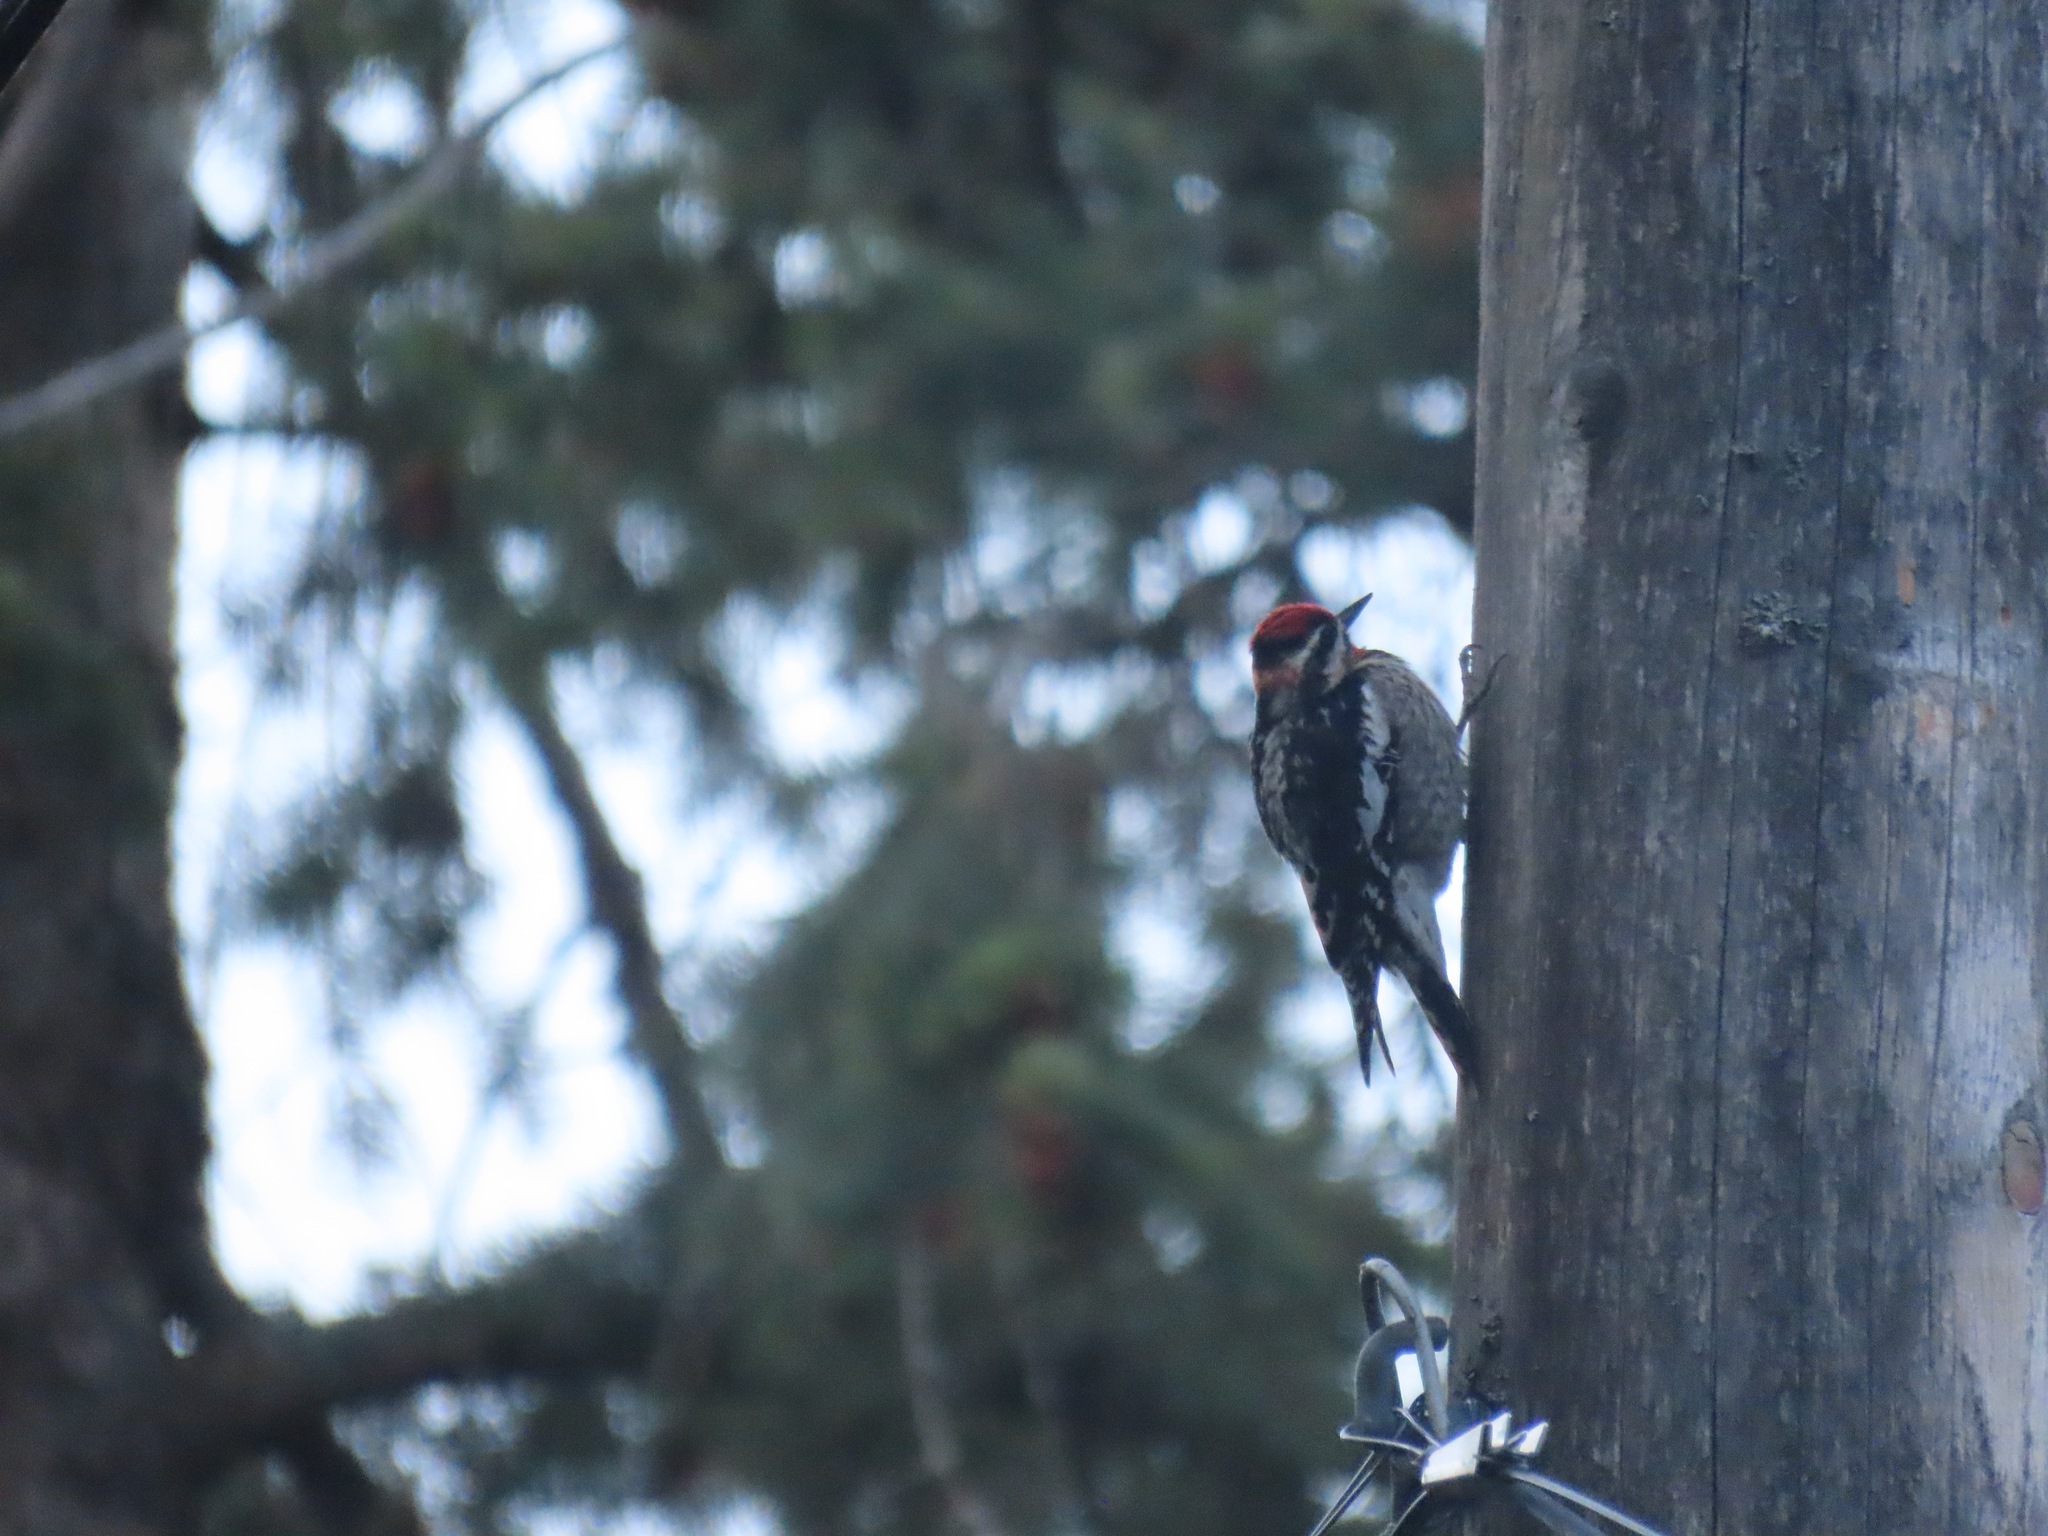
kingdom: Animalia
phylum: Chordata
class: Aves
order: Piciformes
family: Picidae
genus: Sphyrapicus
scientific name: Sphyrapicus nuchalis
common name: Red-naped sapsucker
